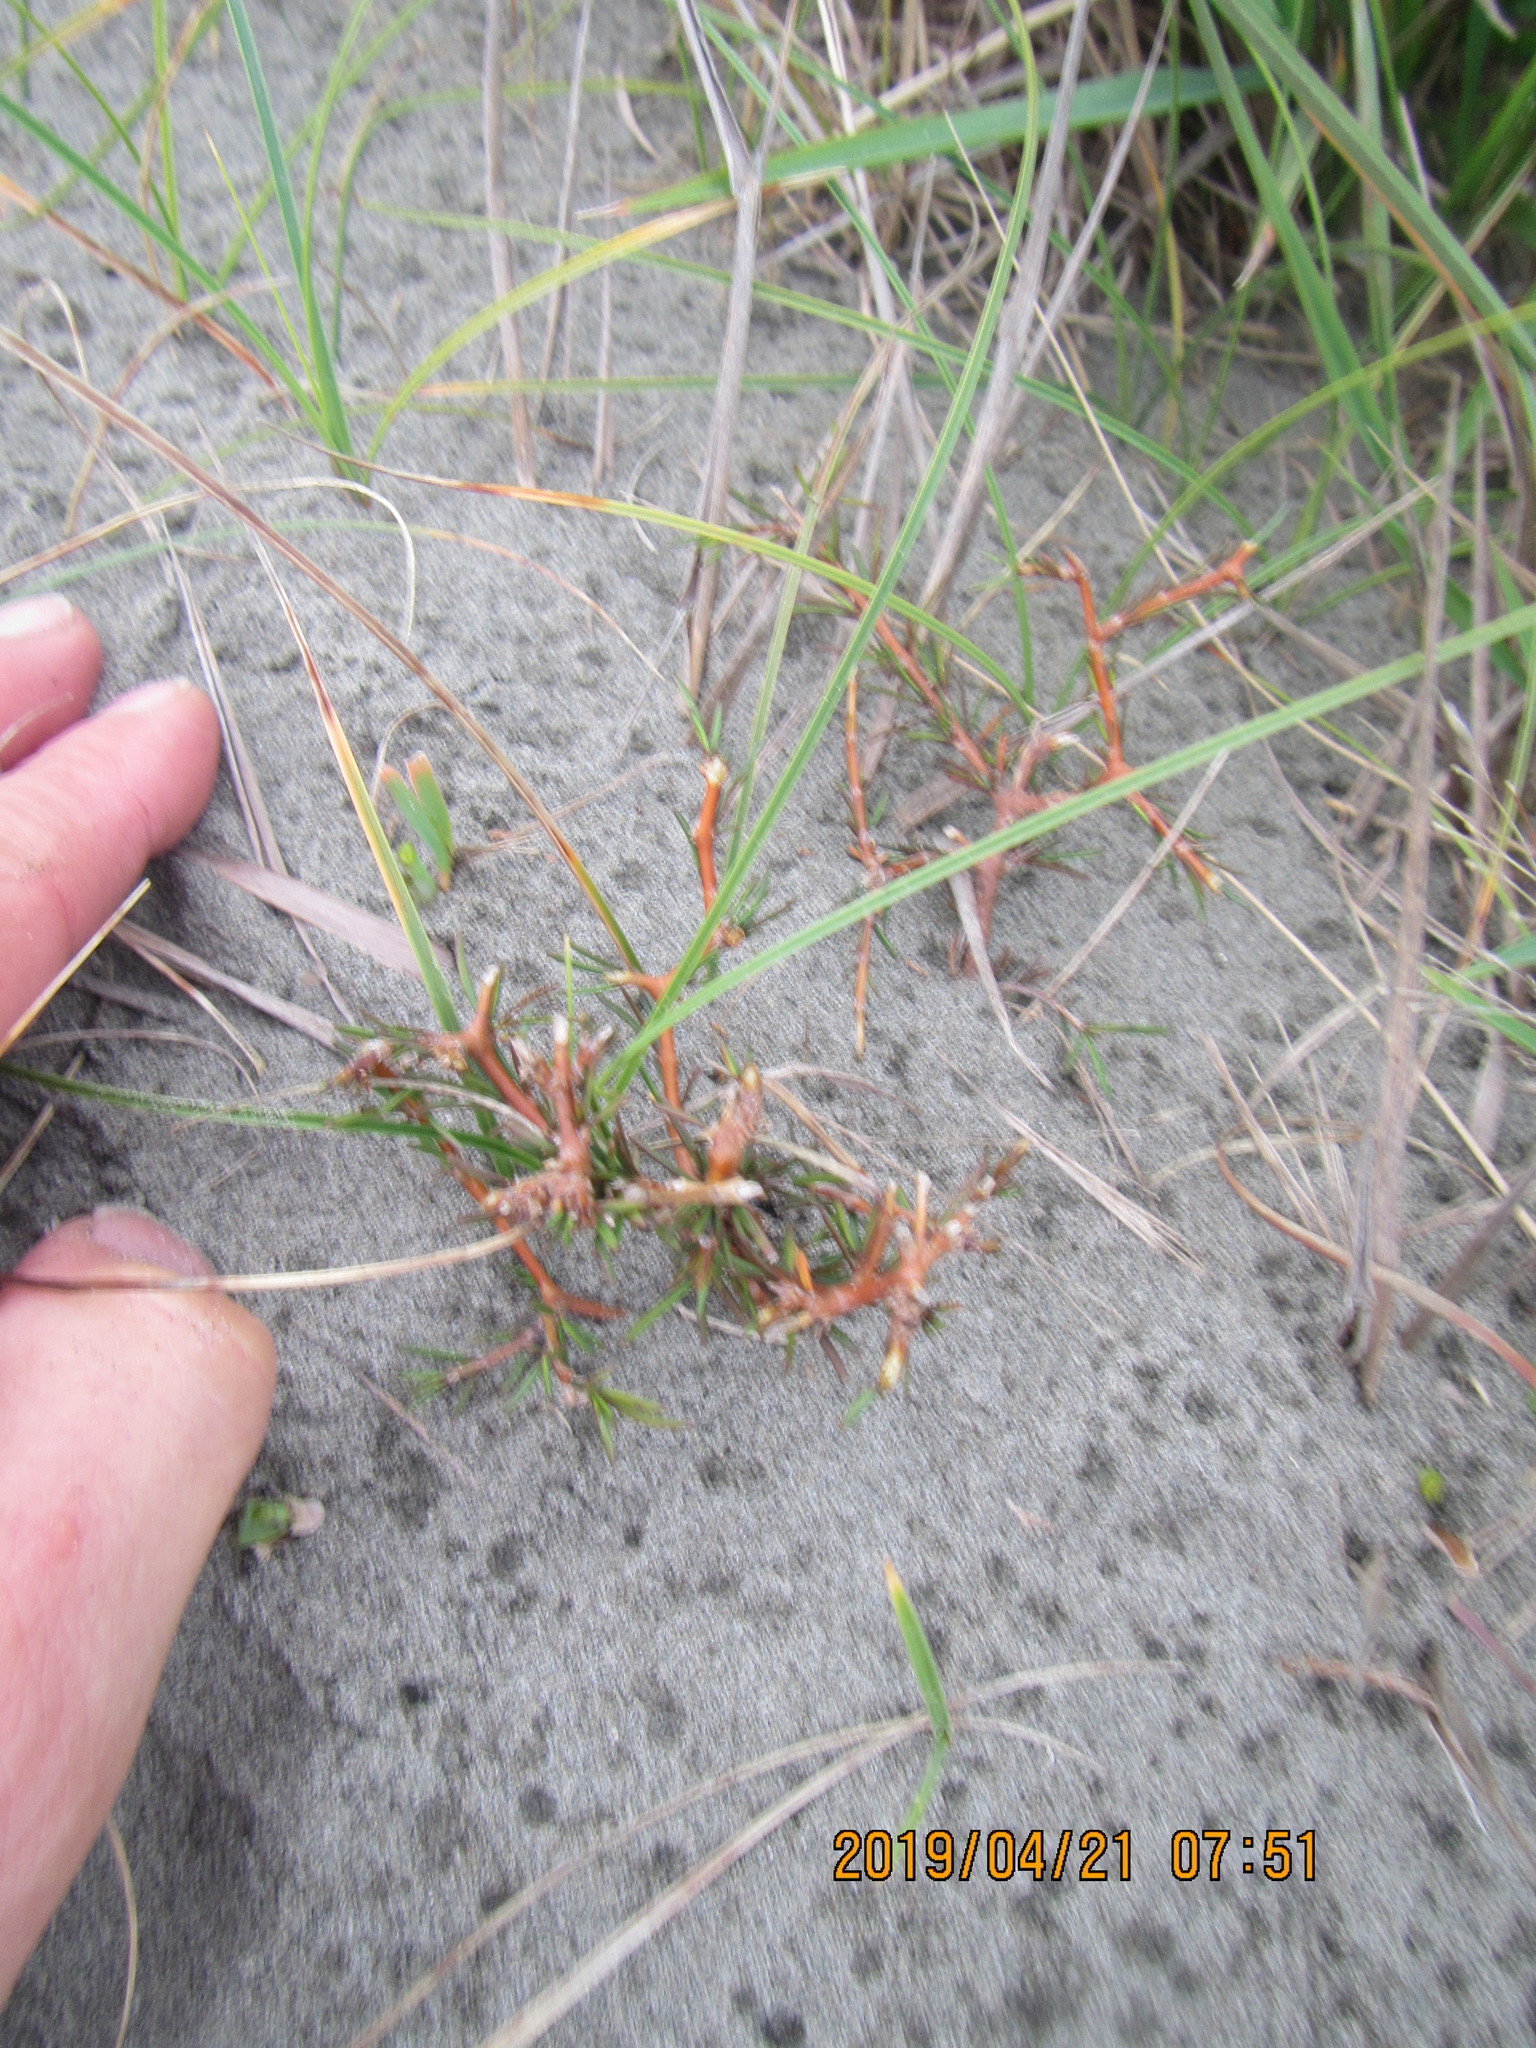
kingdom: Plantae
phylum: Tracheophyta
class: Magnoliopsida
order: Gentianales
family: Rubiaceae
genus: Coprosma
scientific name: Coprosma acerosa
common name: Sand coprosma
